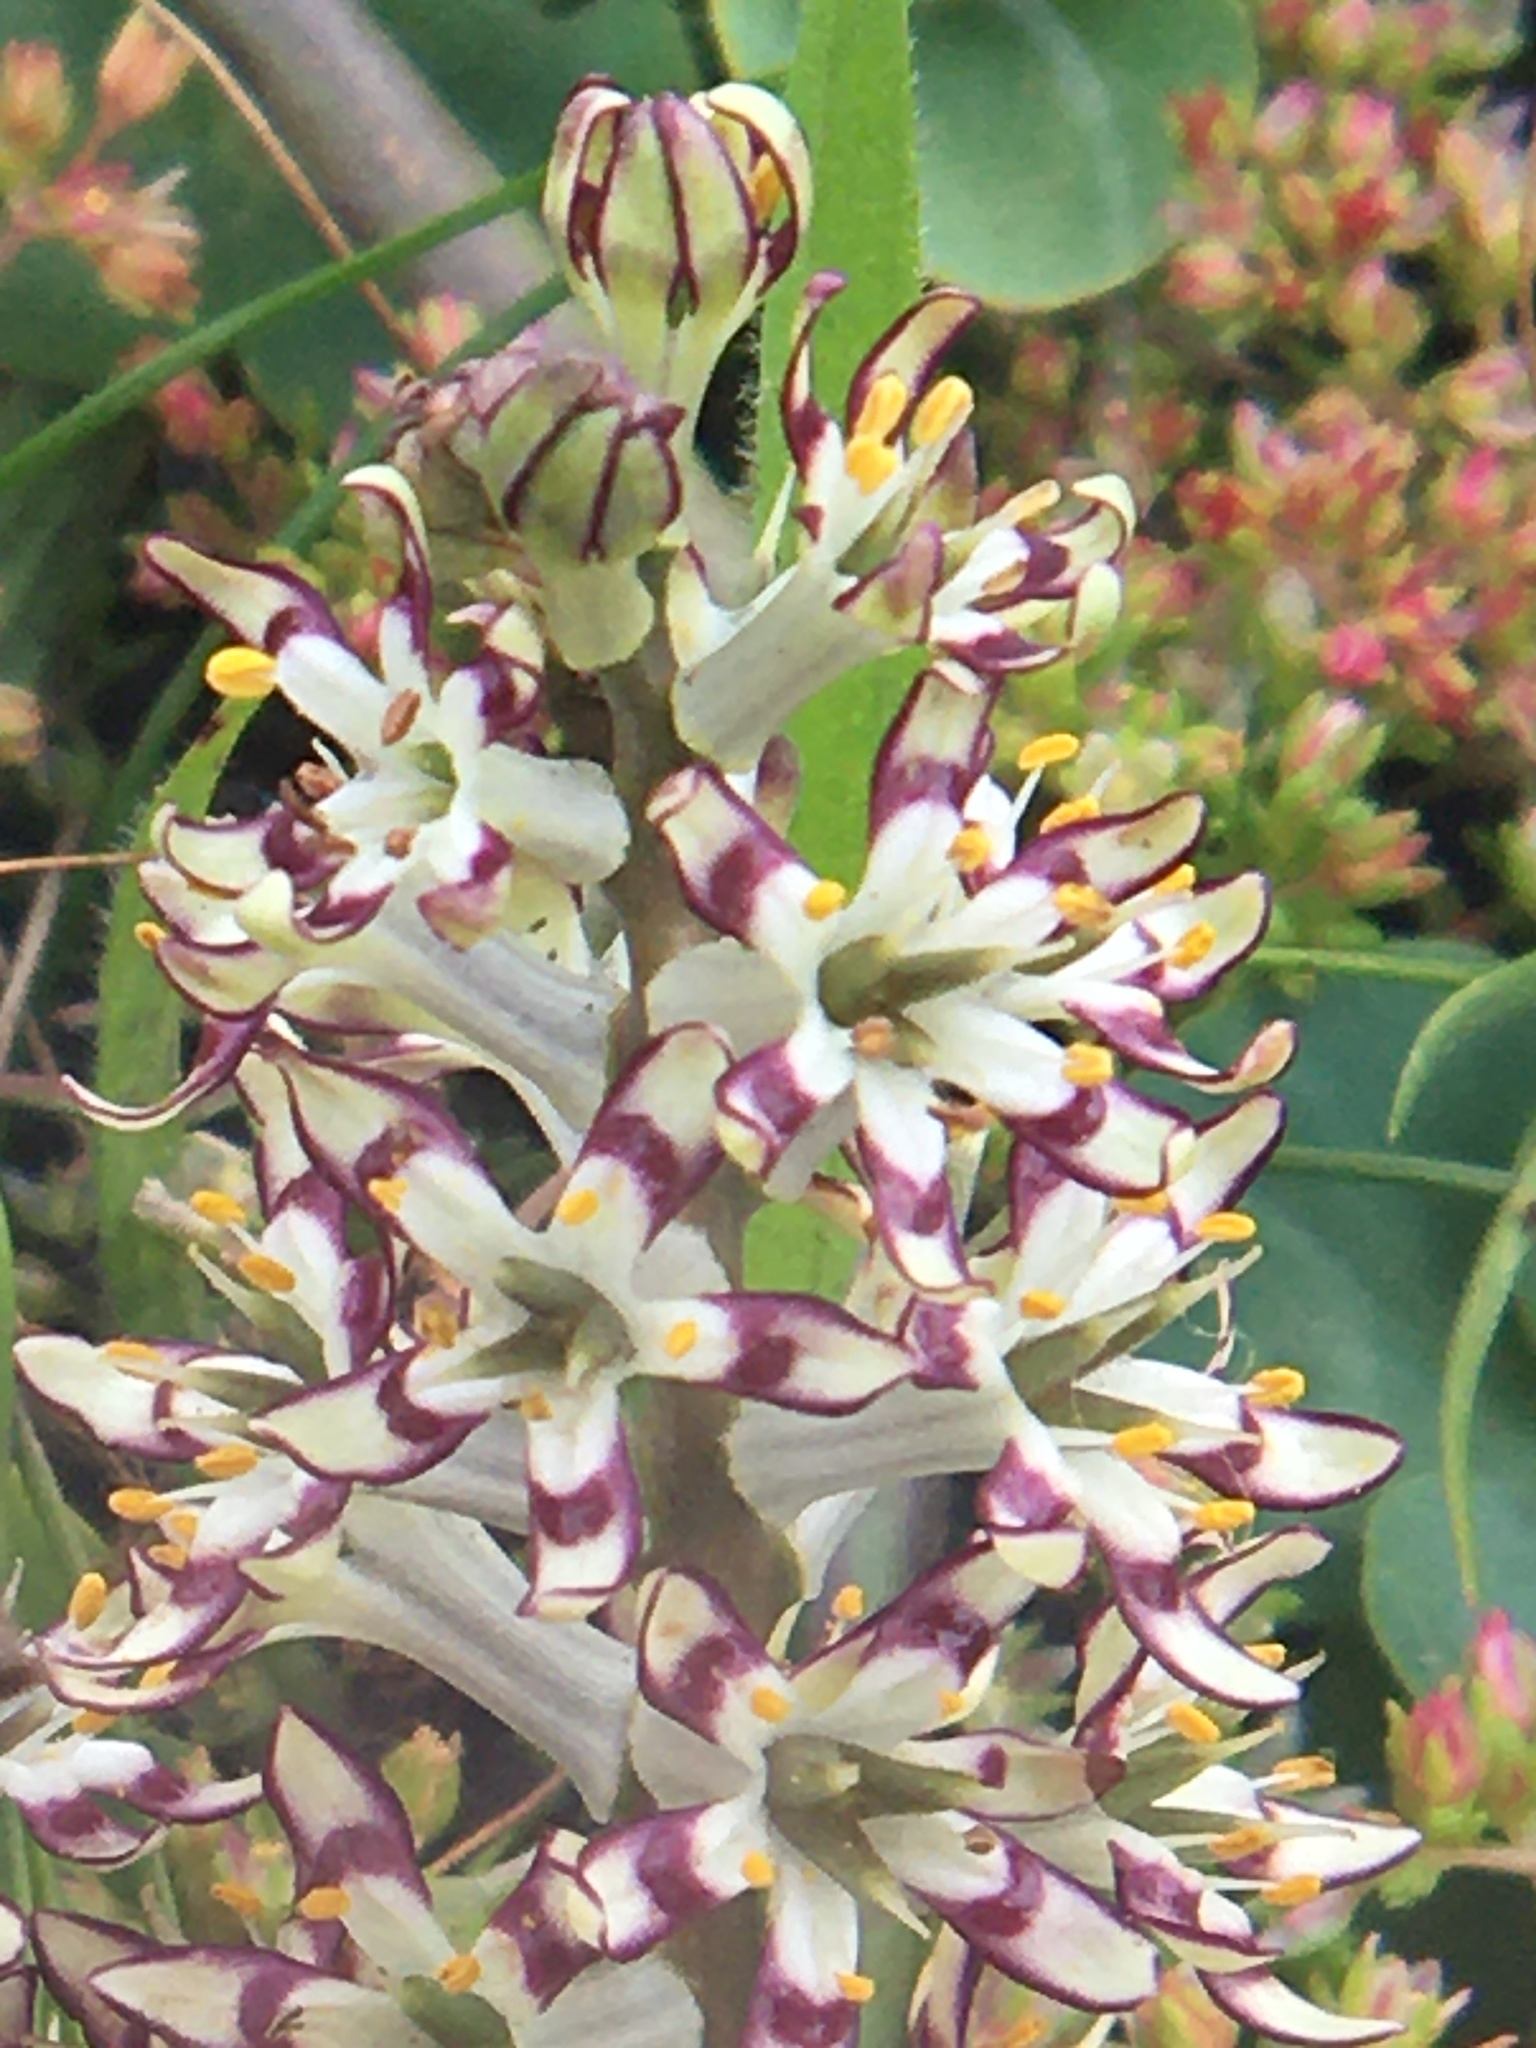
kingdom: Plantae
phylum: Tracheophyta
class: Liliopsida
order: Liliales
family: Colchicaceae
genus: Wurmbea
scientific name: Wurmbea inusta
